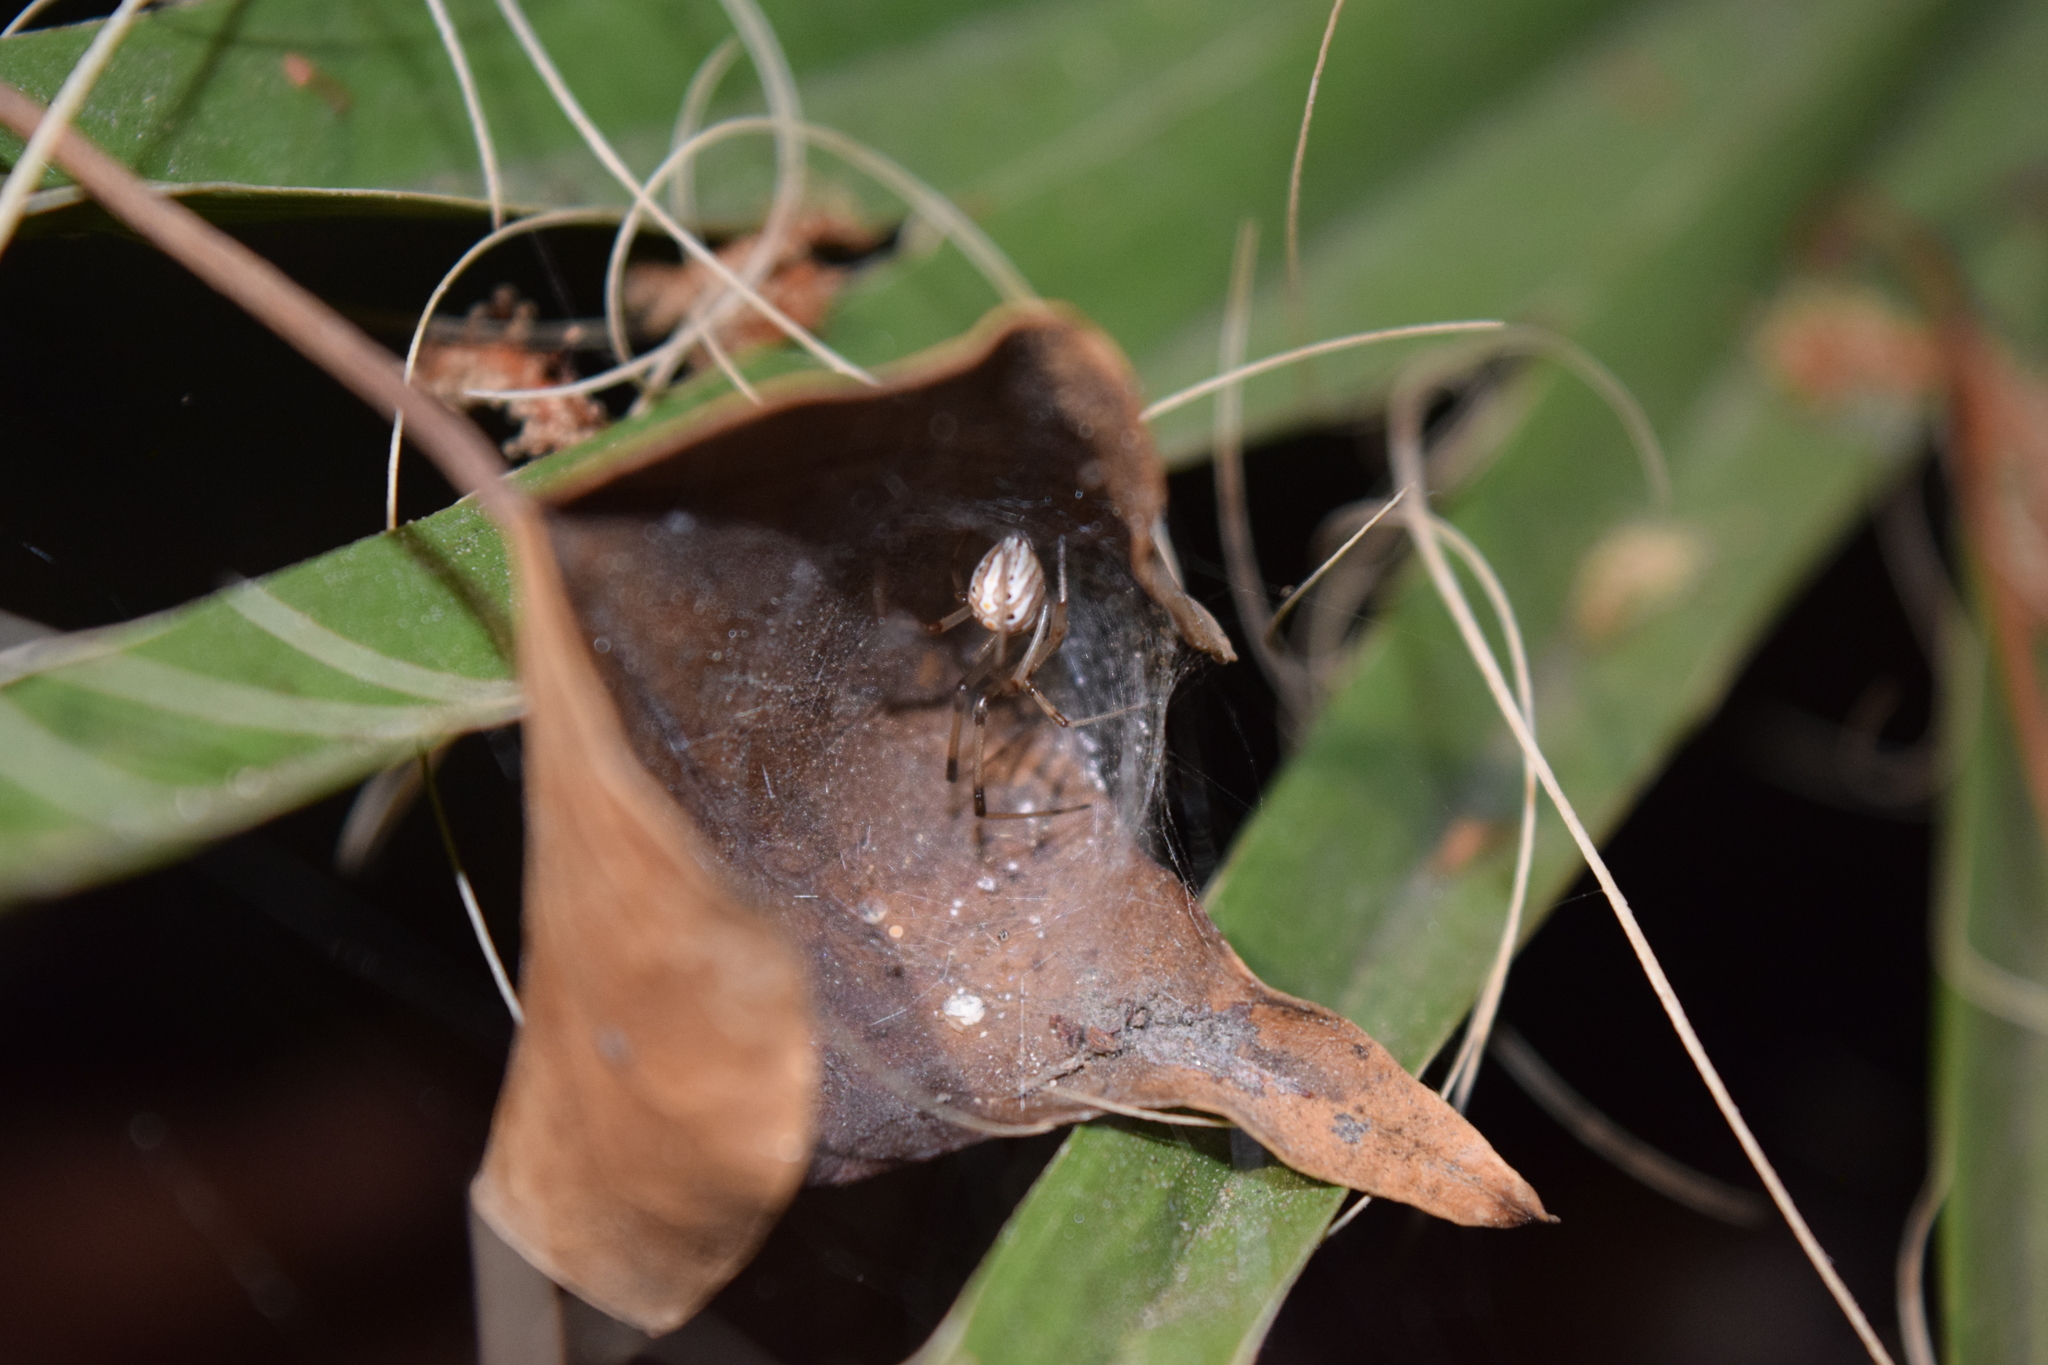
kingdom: Animalia
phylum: Arthropoda
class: Arachnida
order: Araneae
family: Theridiidae
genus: Latrodectus
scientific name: Latrodectus geometricus
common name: Brown widow spider
